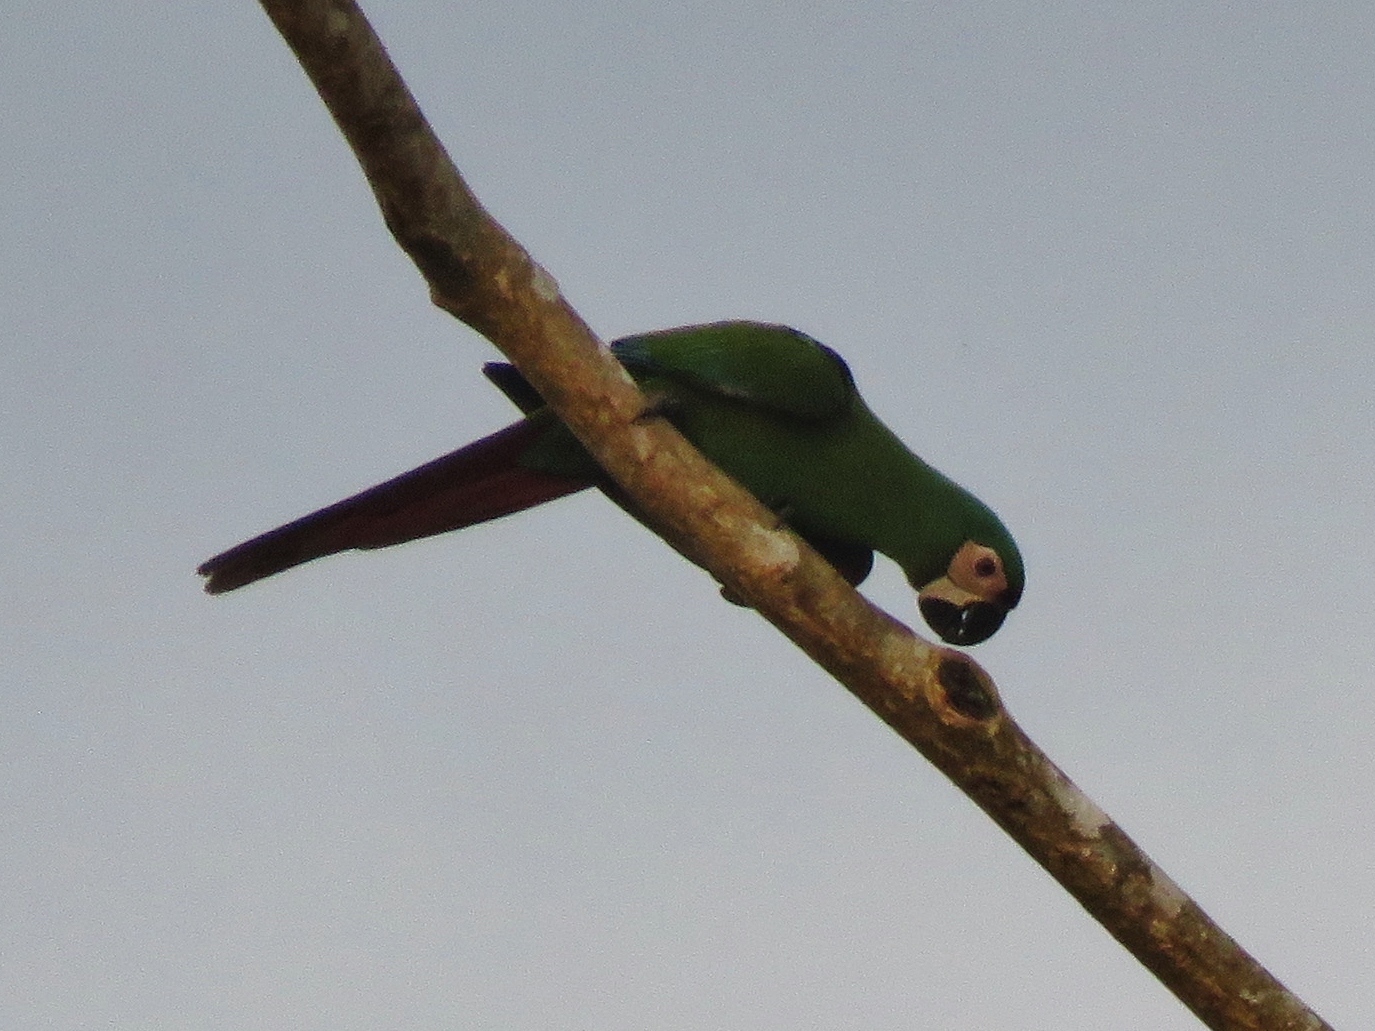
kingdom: Animalia
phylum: Chordata
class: Aves
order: Psittaciformes
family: Psittacidae
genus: Ara
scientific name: Ara severus
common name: Chestnut-fronted macaw
